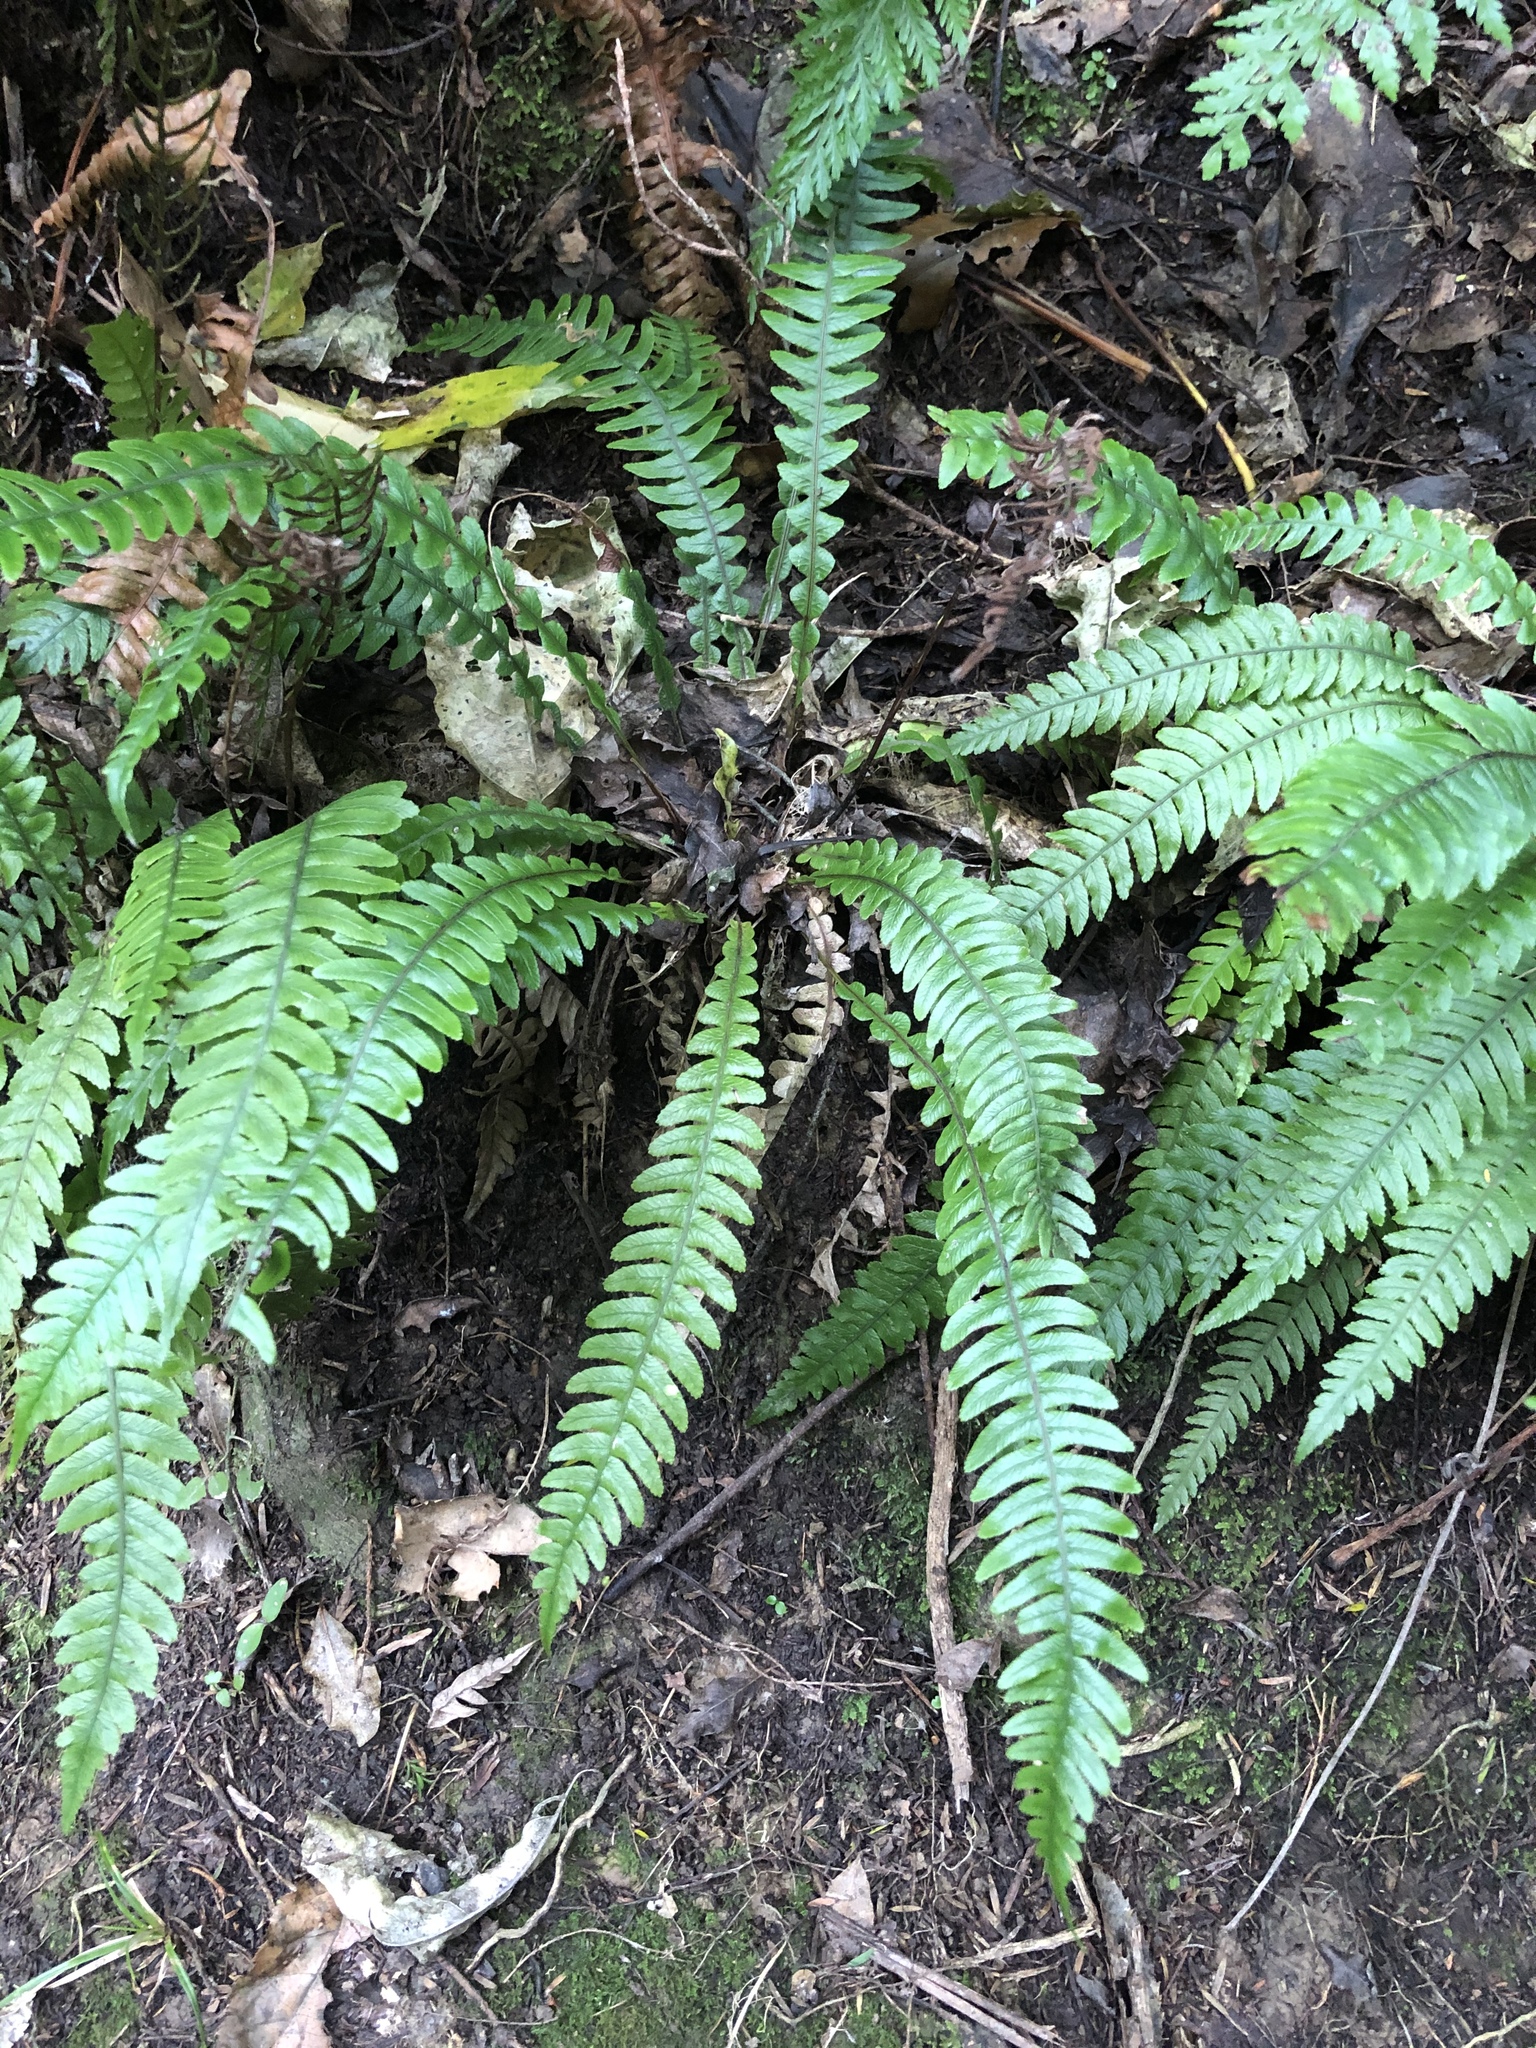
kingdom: Plantae
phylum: Tracheophyta
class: Polypodiopsida
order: Polypodiales
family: Blechnaceae
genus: Austroblechnum
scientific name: Austroblechnum lanceolatum
